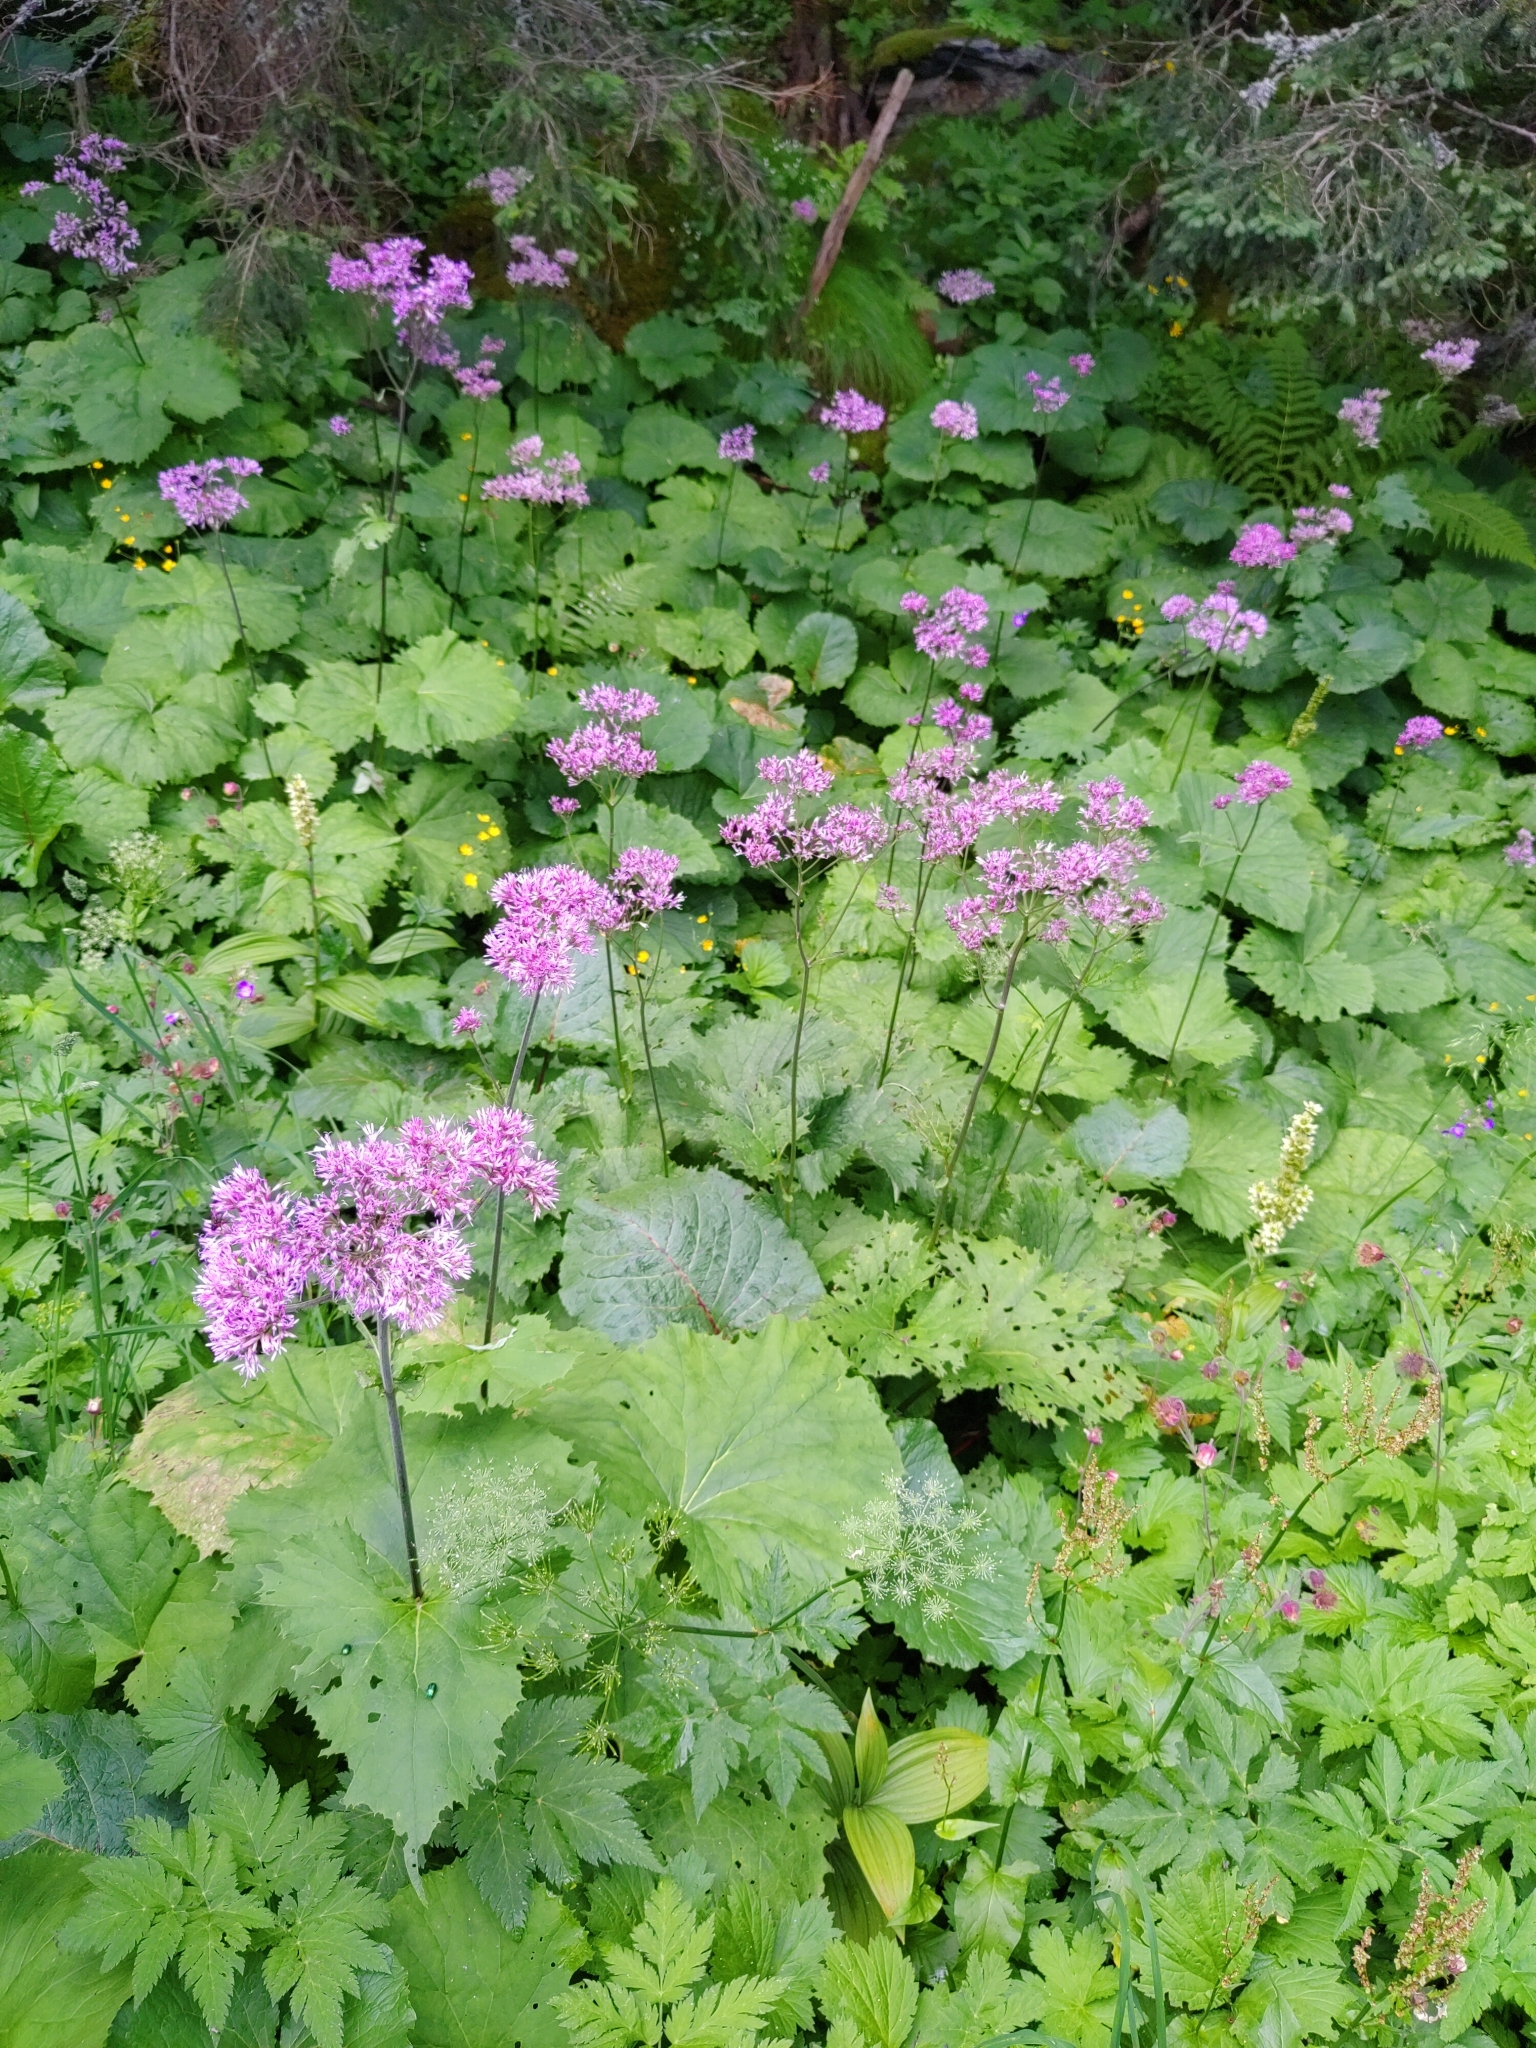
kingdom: Plantae
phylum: Tracheophyta
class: Magnoliopsida
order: Asterales
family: Asteraceae
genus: Adenostyles
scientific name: Adenostyles alliariae
